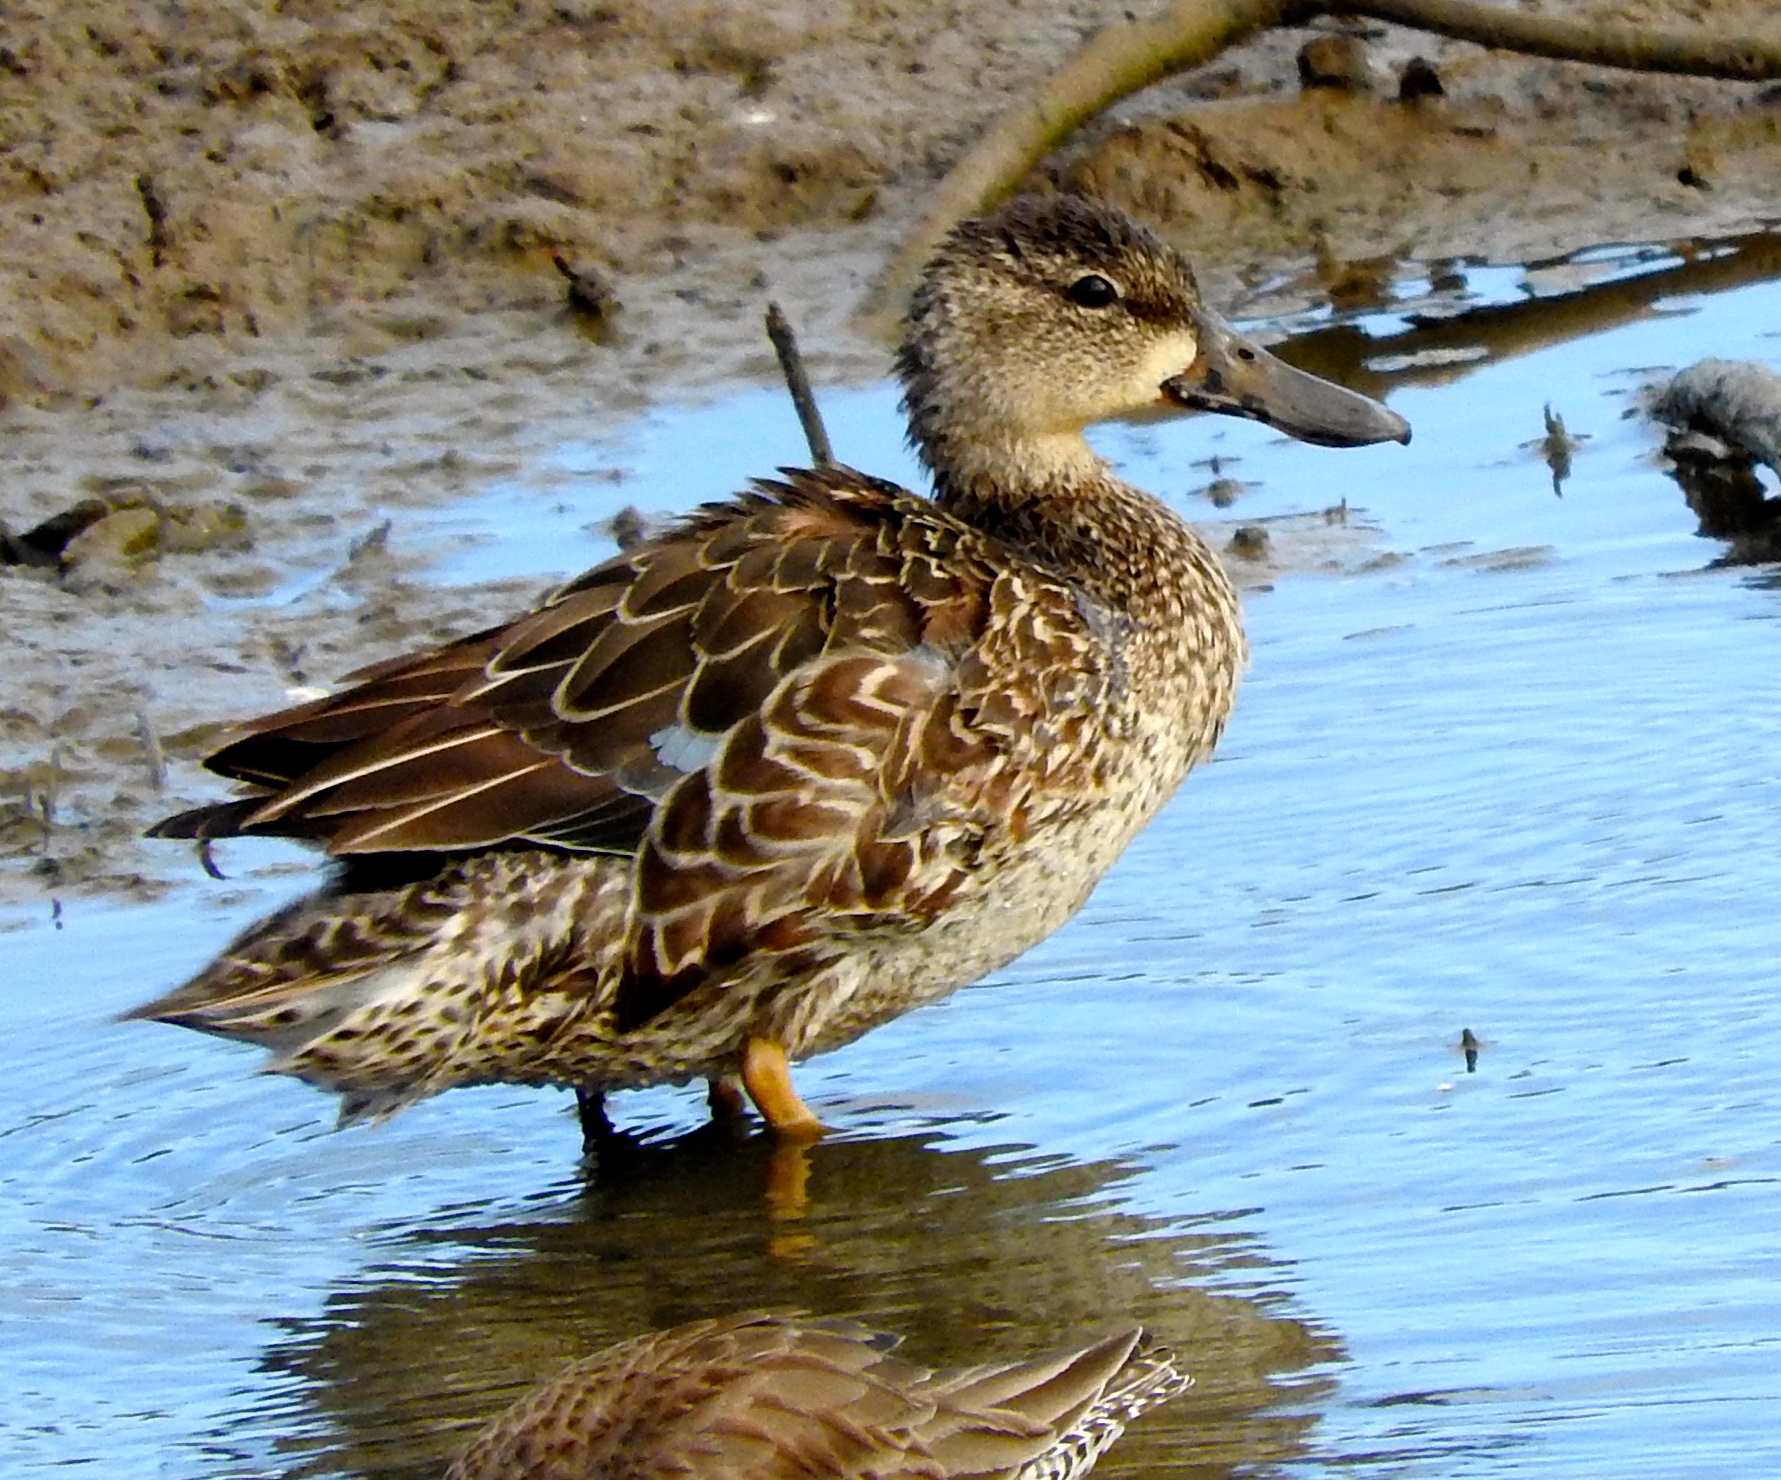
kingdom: Animalia
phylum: Chordata
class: Aves
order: Anseriformes
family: Anatidae
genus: Spatula
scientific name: Spatula discors
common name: Blue-winged teal
